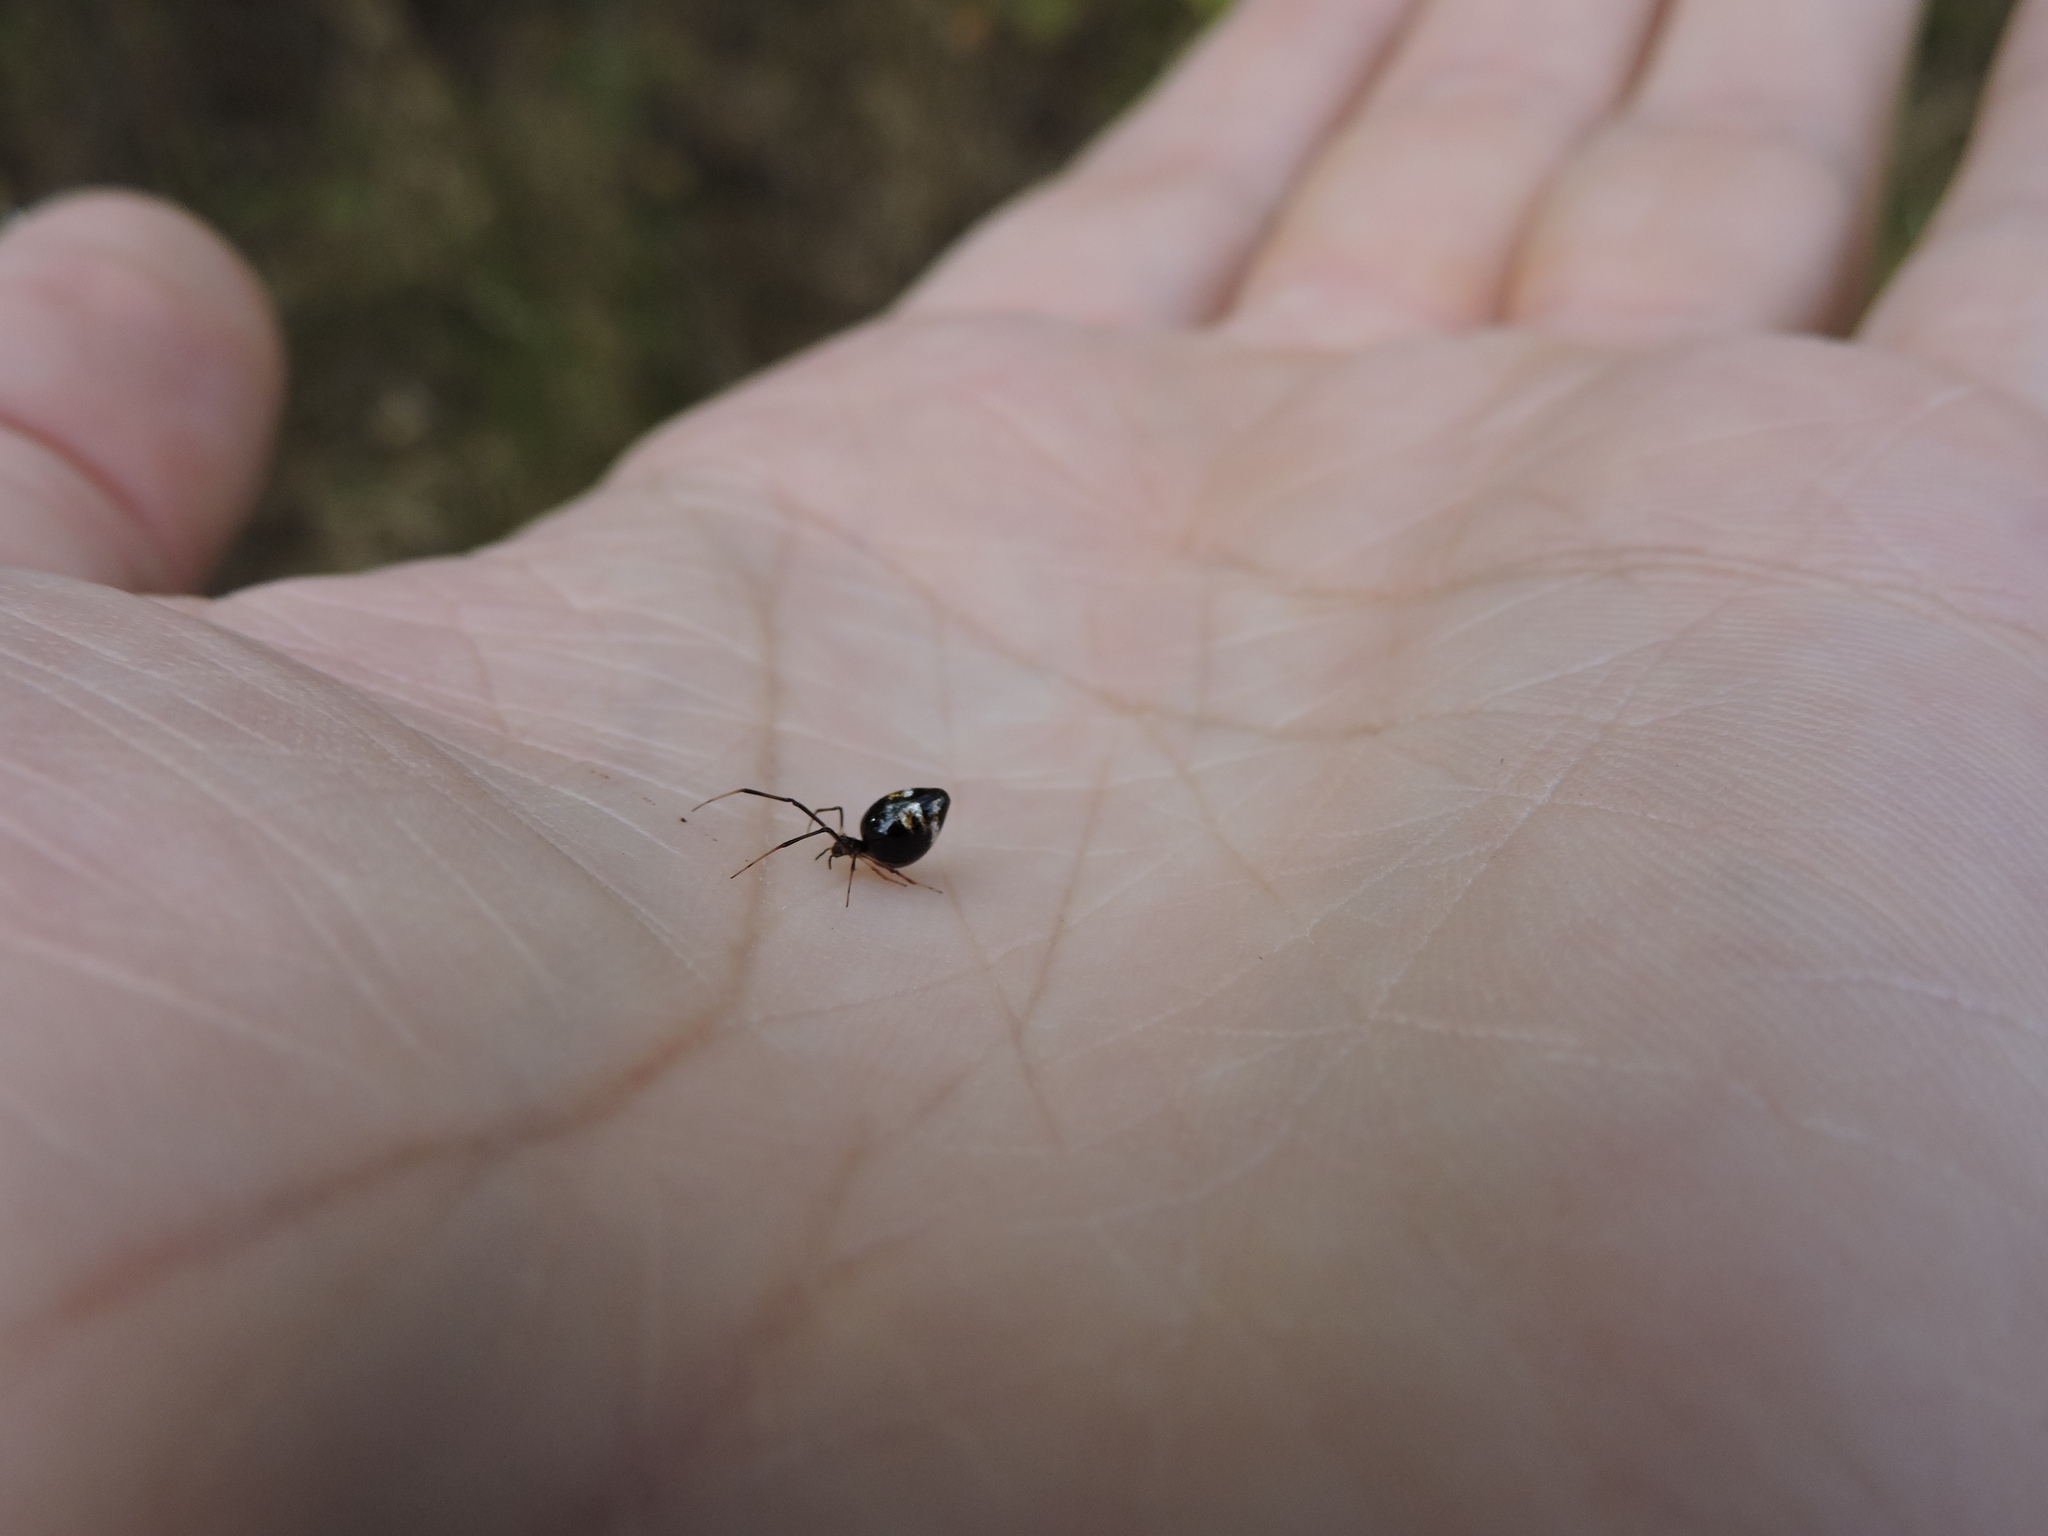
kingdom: Animalia
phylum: Arthropoda
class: Arachnida
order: Araneae
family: Theridiidae
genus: Argyrodes
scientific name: Argyrodes elevatus
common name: Cobweb spiders
